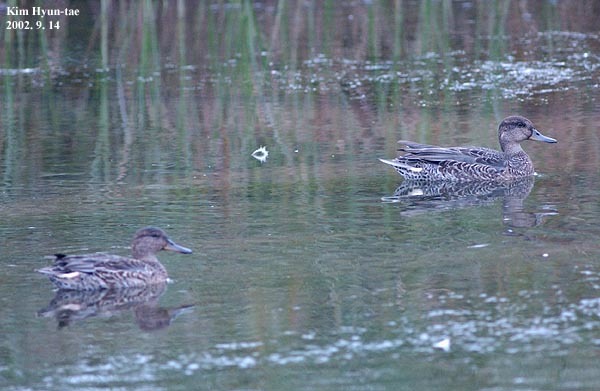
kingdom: Animalia
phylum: Chordata
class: Aves
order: Anseriformes
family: Anatidae
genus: Anas
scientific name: Anas crecca
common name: Eurasian teal
